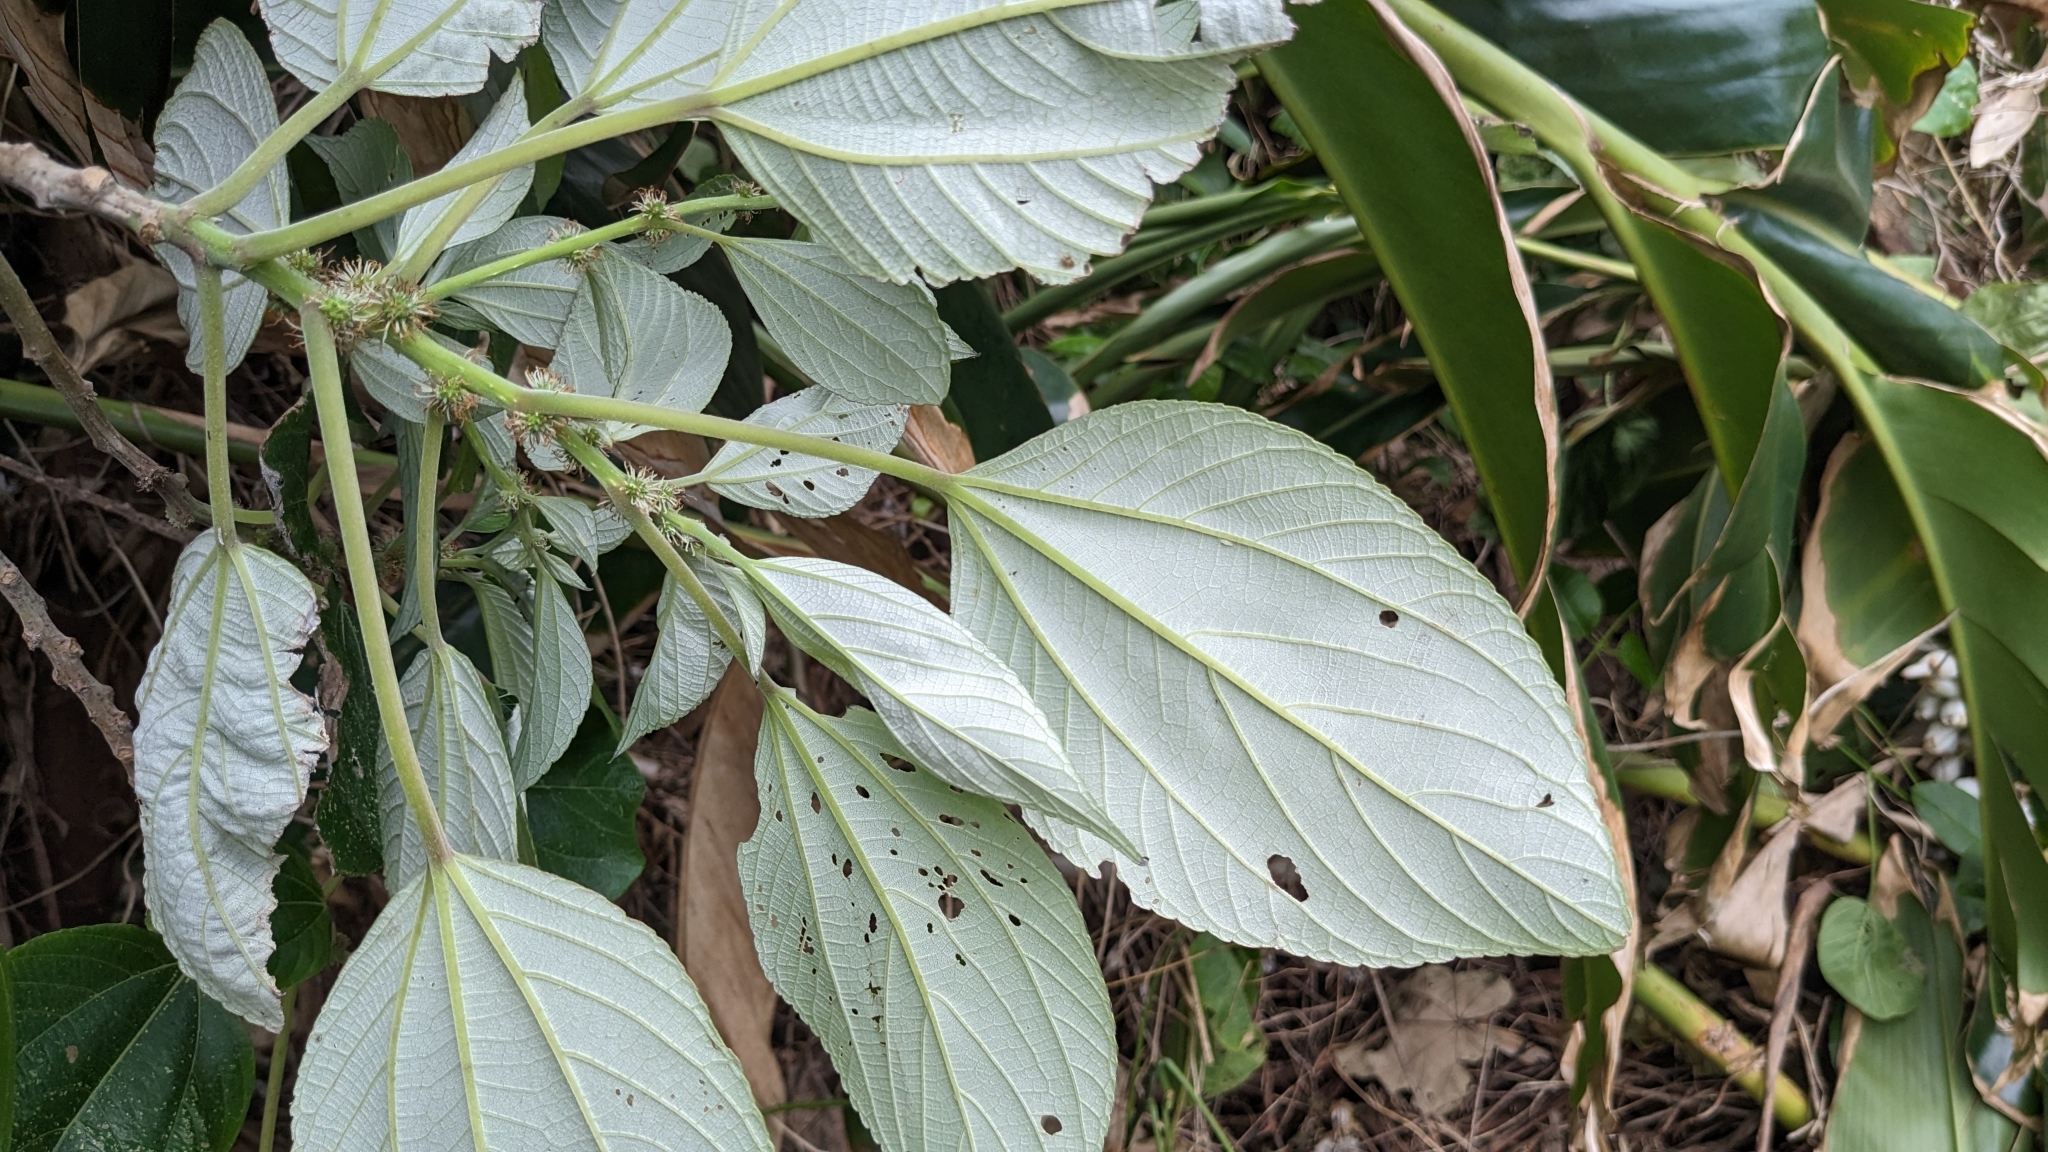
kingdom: Plantae
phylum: Tracheophyta
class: Magnoliopsida
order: Rosales
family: Urticaceae
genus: Pipturus
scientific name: Pipturus arborescens
